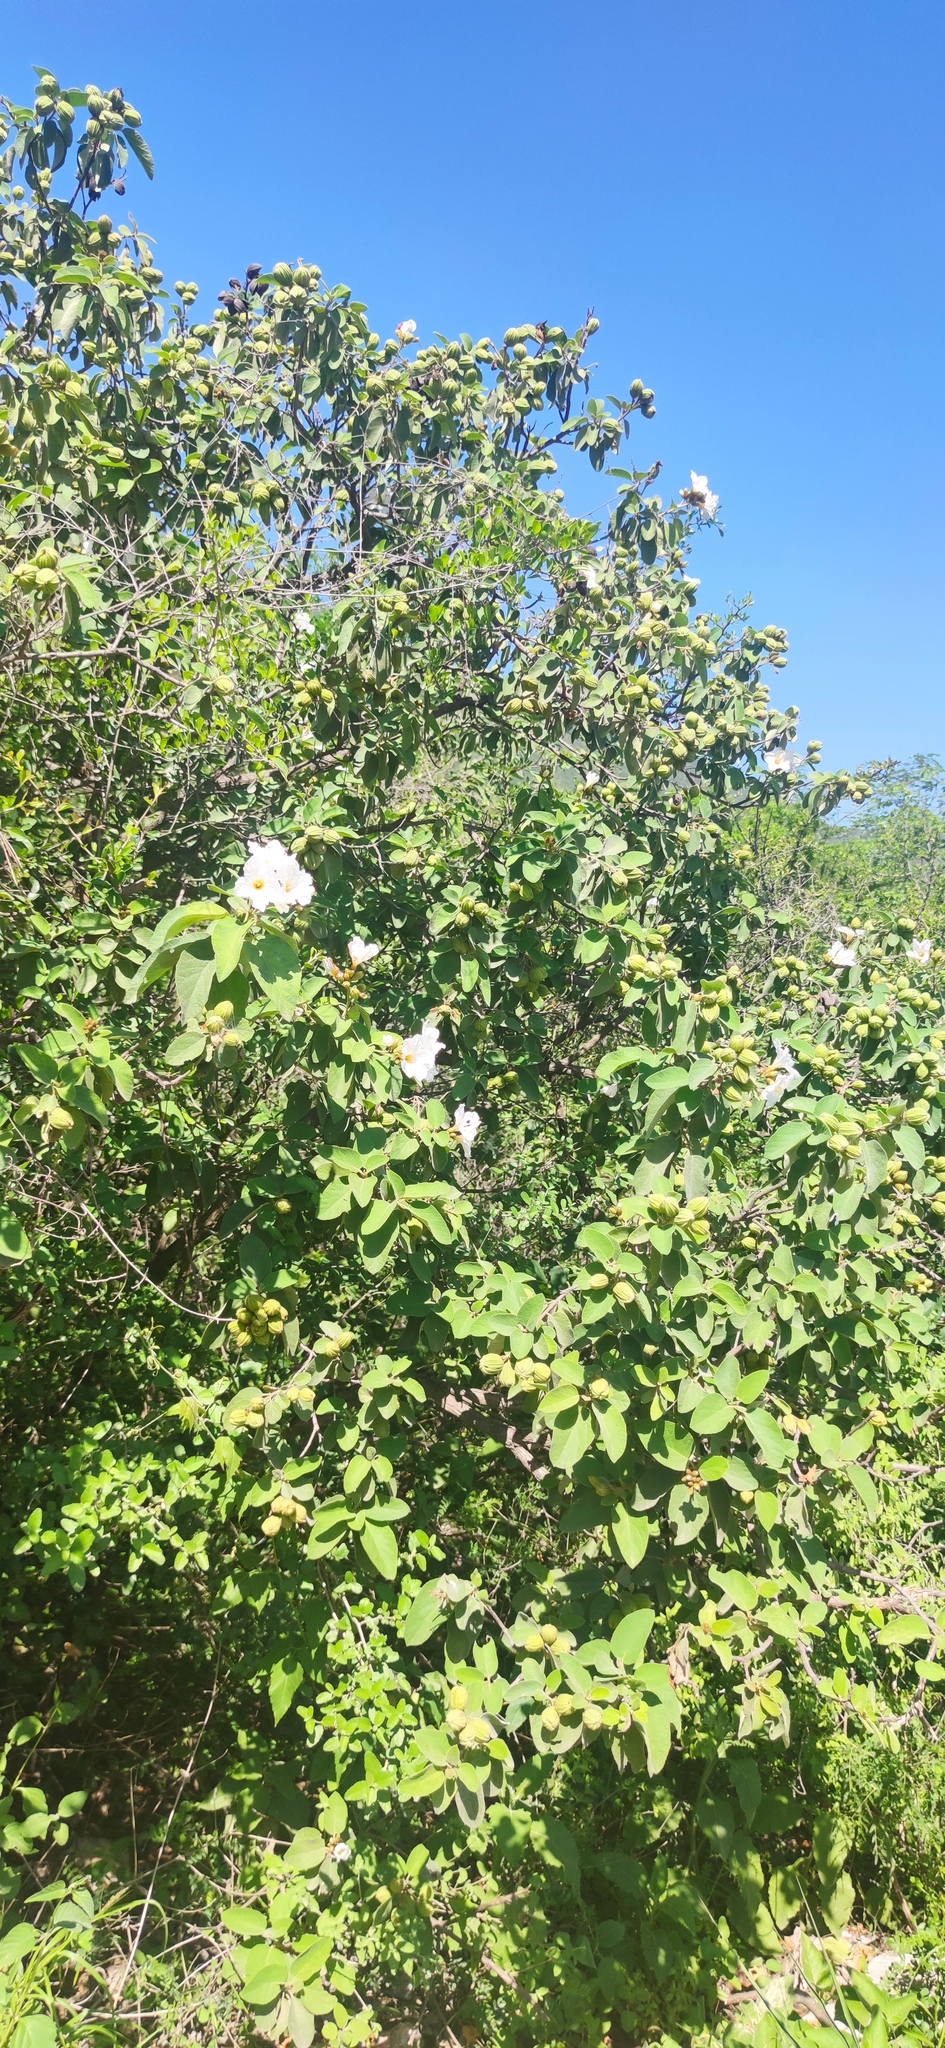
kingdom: Plantae
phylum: Tracheophyta
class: Magnoliopsida
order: Boraginales
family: Cordiaceae
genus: Cordia
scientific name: Cordia boissieri
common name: Mexican-olive
